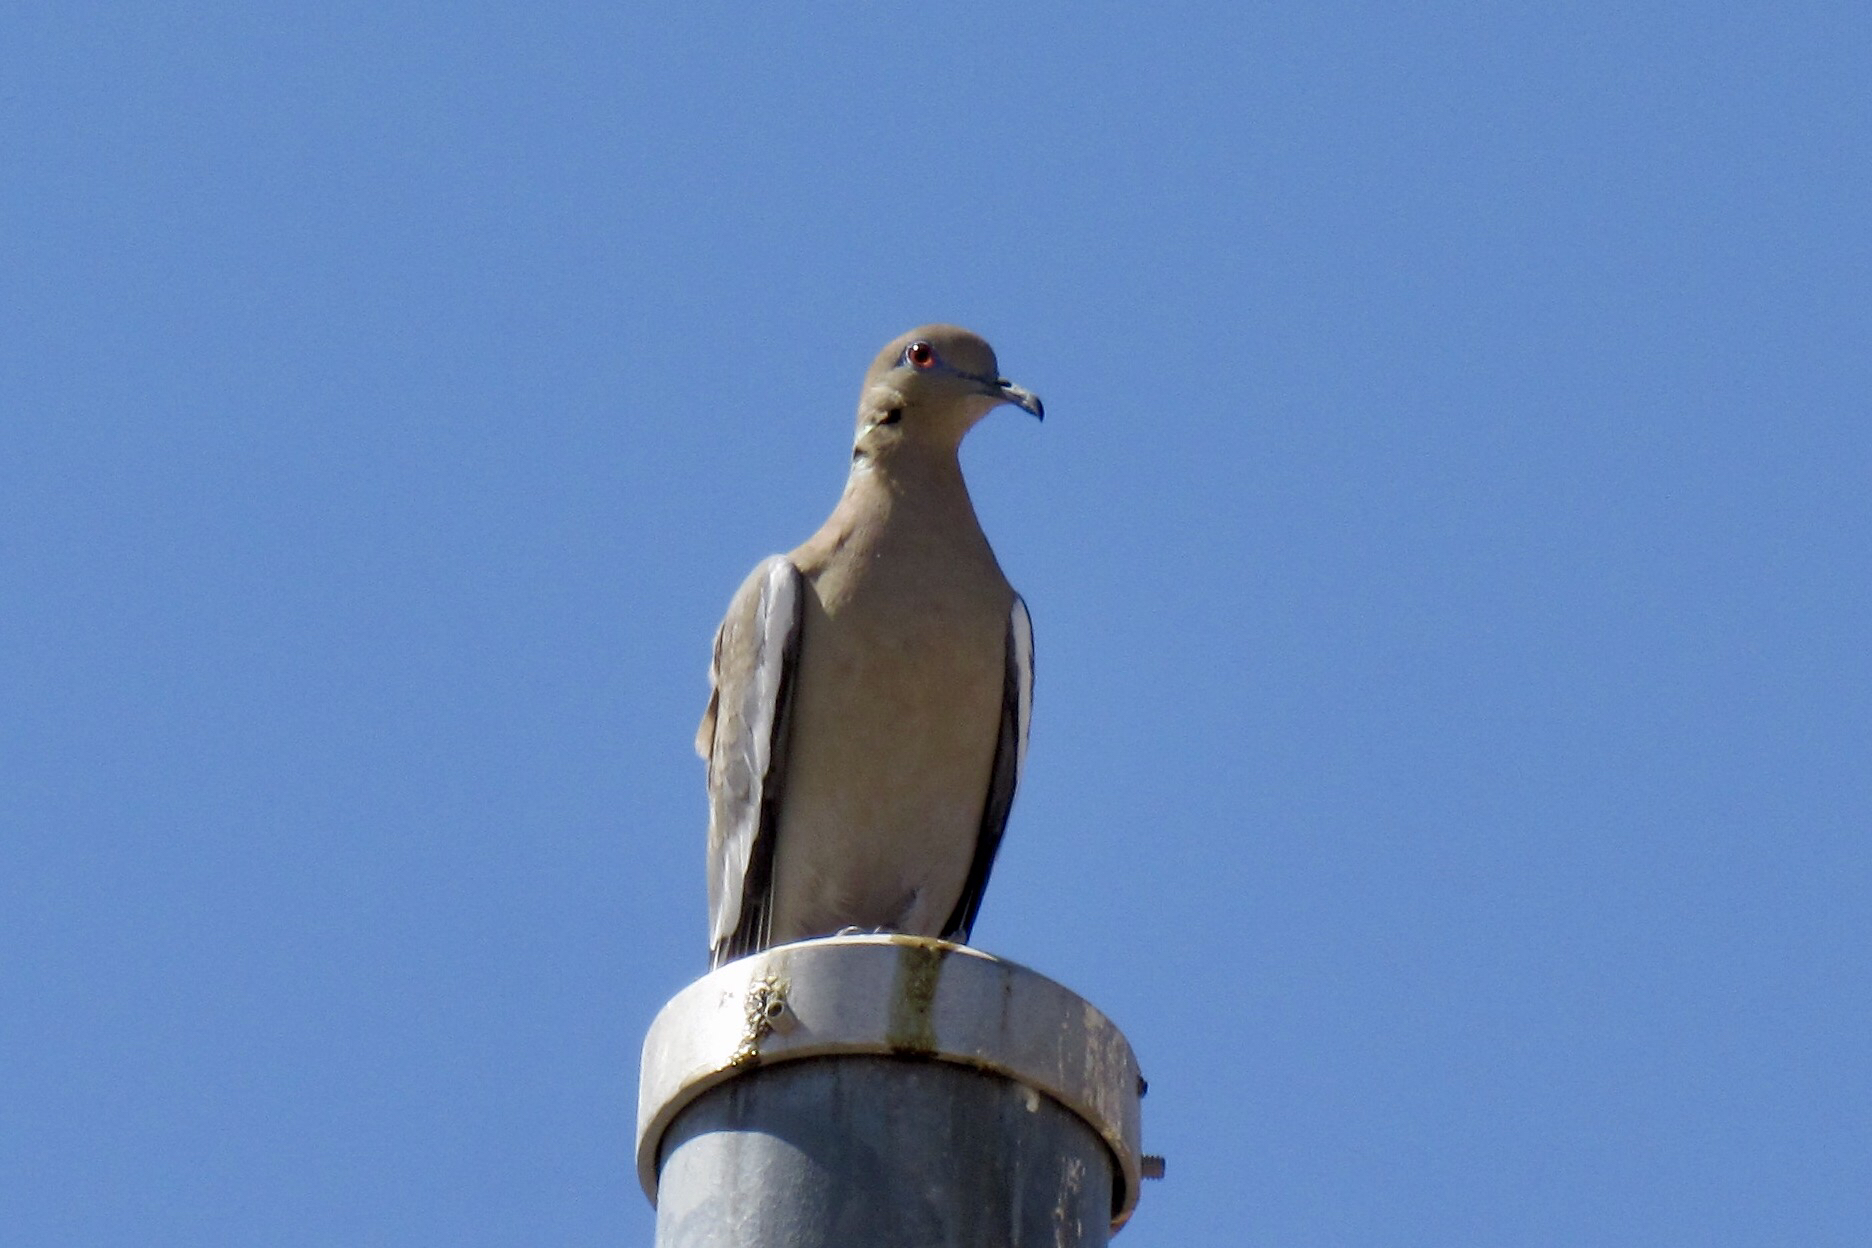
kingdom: Animalia
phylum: Chordata
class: Aves
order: Columbiformes
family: Columbidae
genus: Zenaida
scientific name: Zenaida asiatica
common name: White-winged dove
